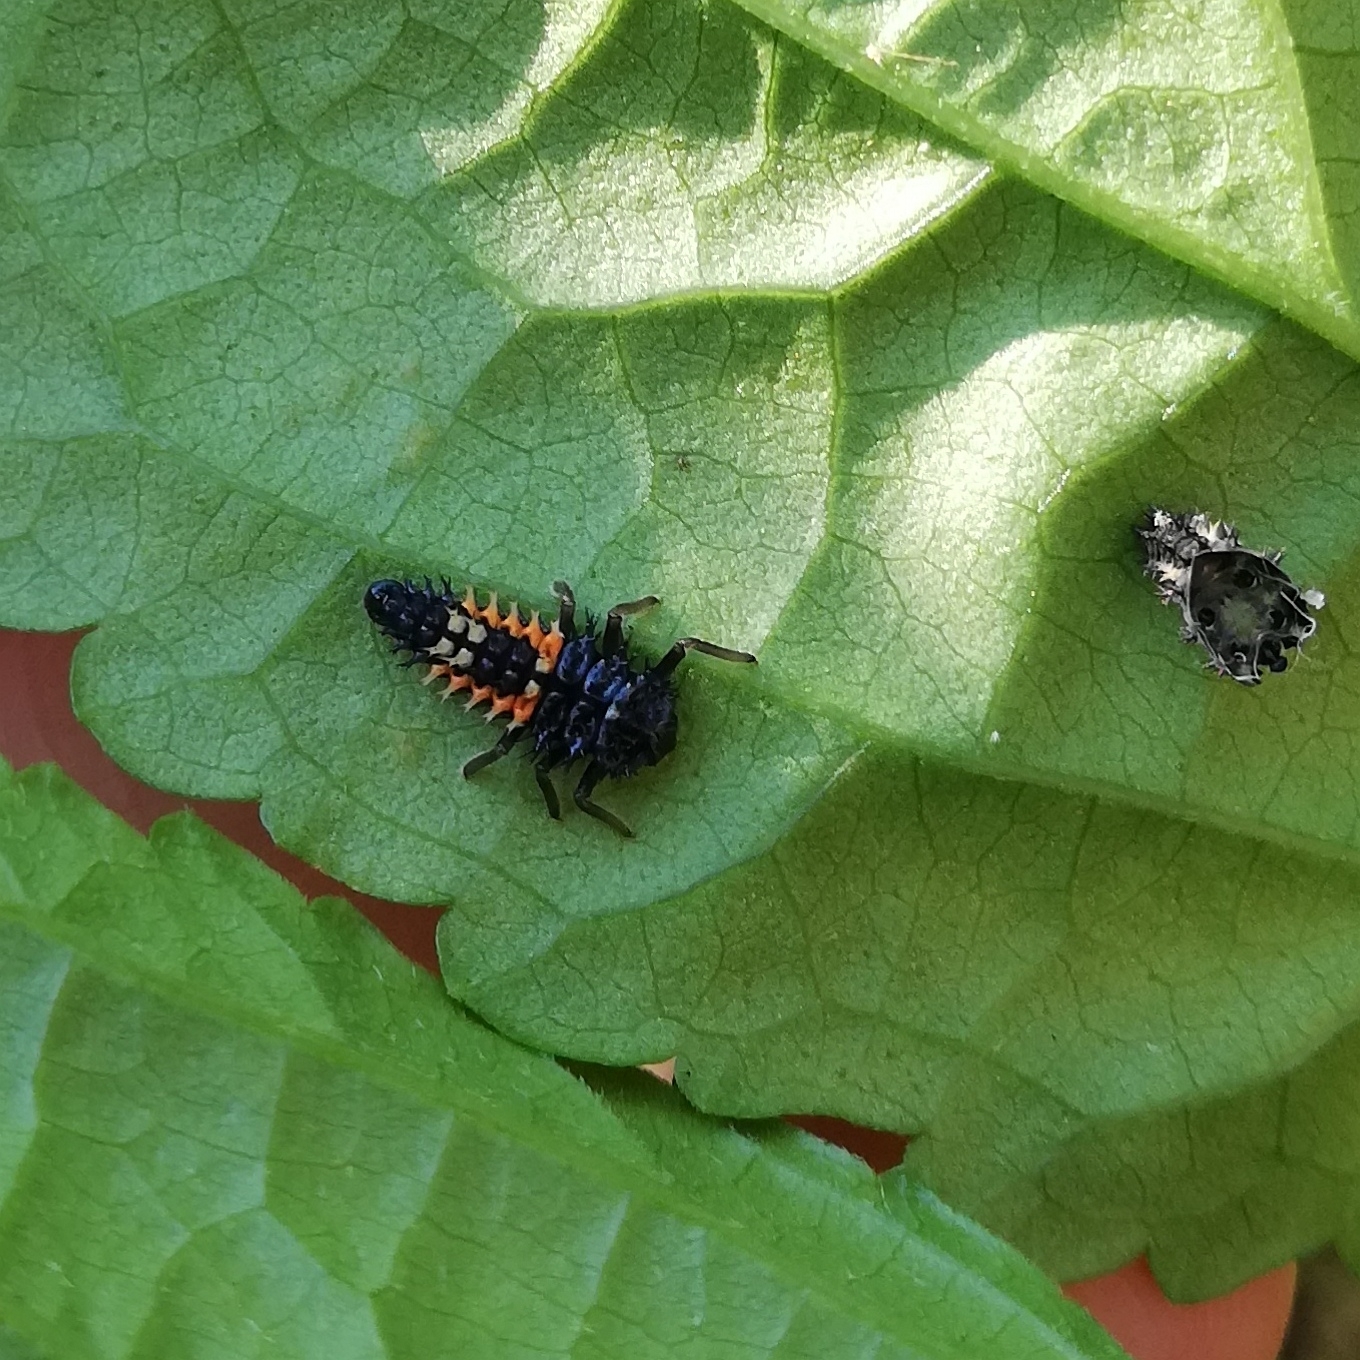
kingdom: Animalia
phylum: Arthropoda
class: Insecta
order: Coleoptera
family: Coccinellidae
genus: Harmonia
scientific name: Harmonia axyridis
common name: Harlequin ladybird
